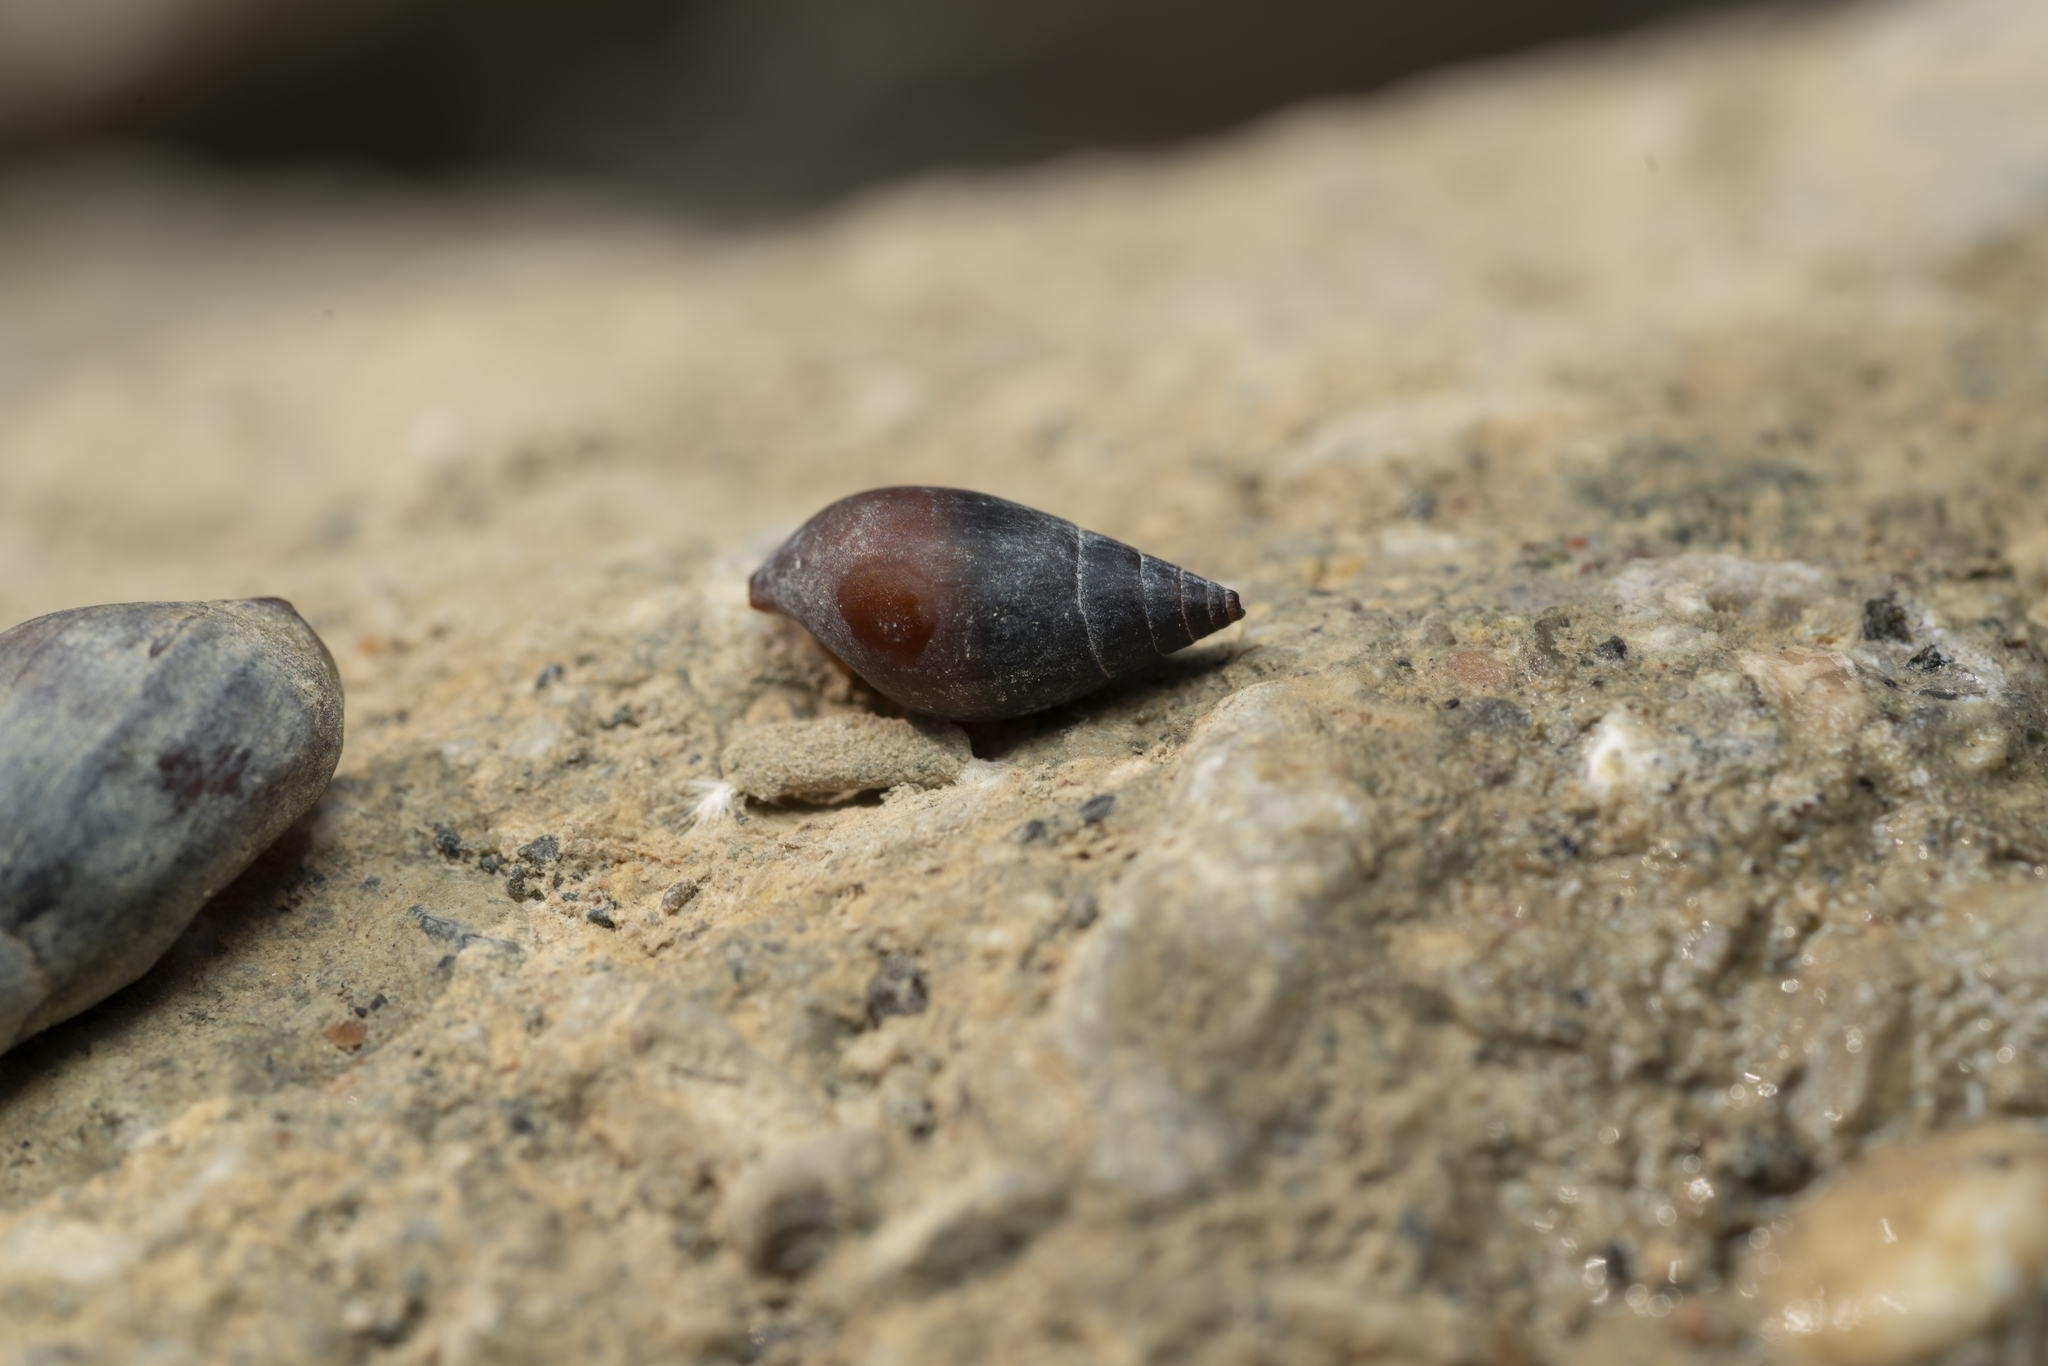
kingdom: Animalia
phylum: Mollusca
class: Gastropoda
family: Melanopsidae
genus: Melanopsis
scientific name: Melanopsis wagneri
